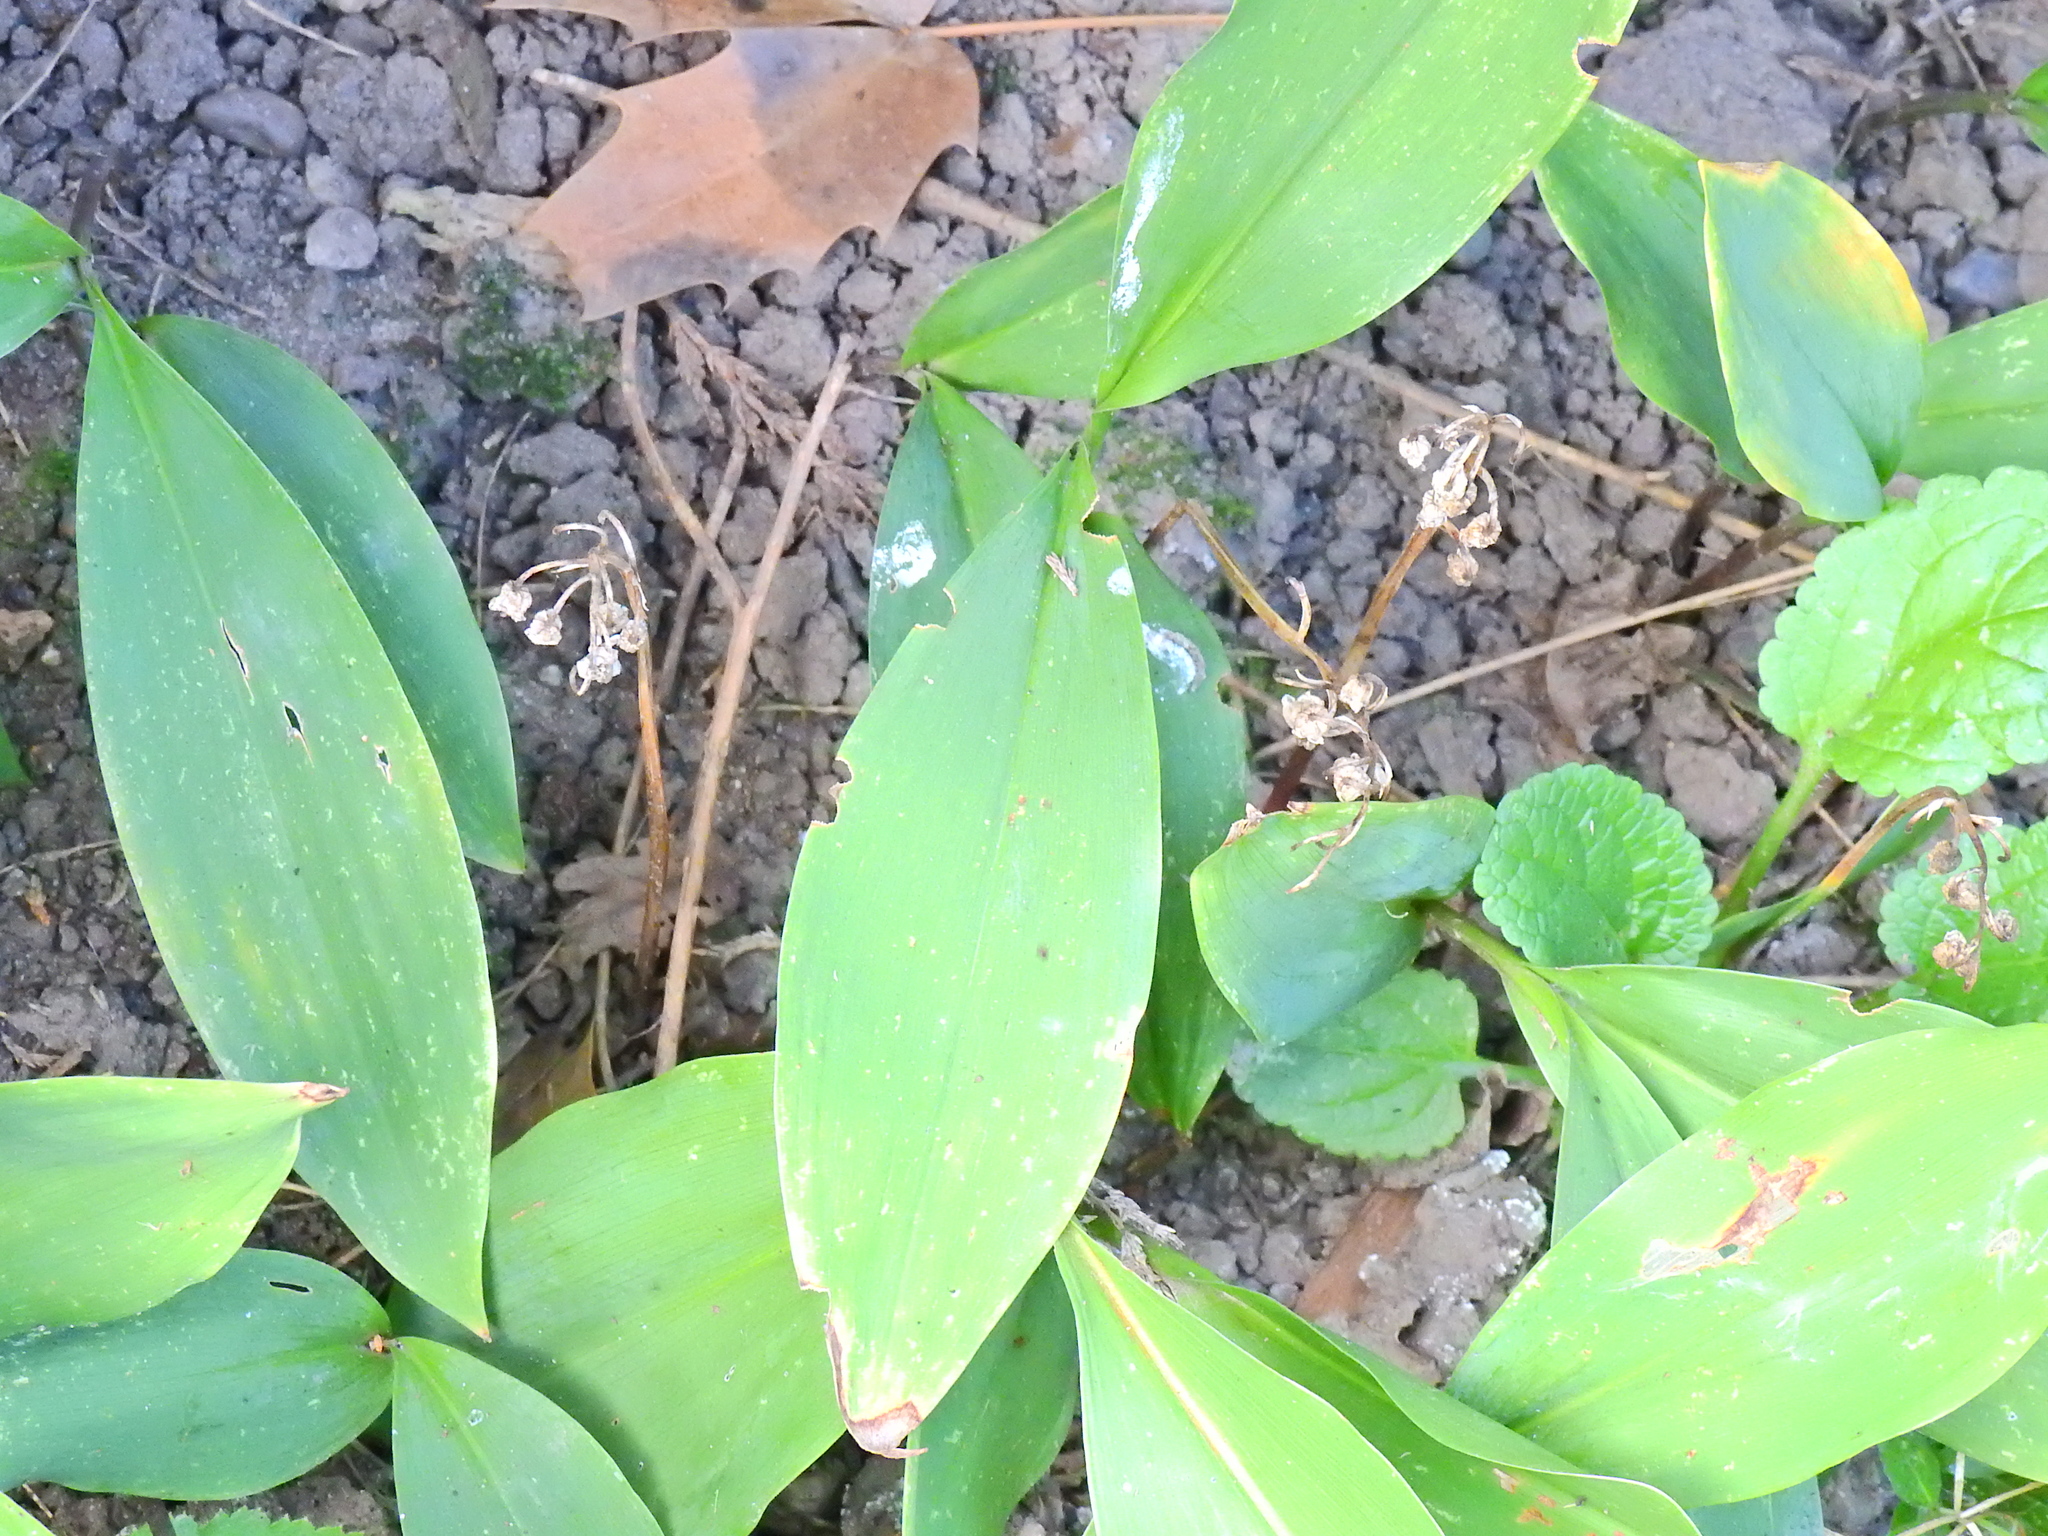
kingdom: Plantae
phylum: Tracheophyta
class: Liliopsida
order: Asparagales
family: Asparagaceae
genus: Convallaria
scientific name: Convallaria majalis
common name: Lily-of-the-valley
